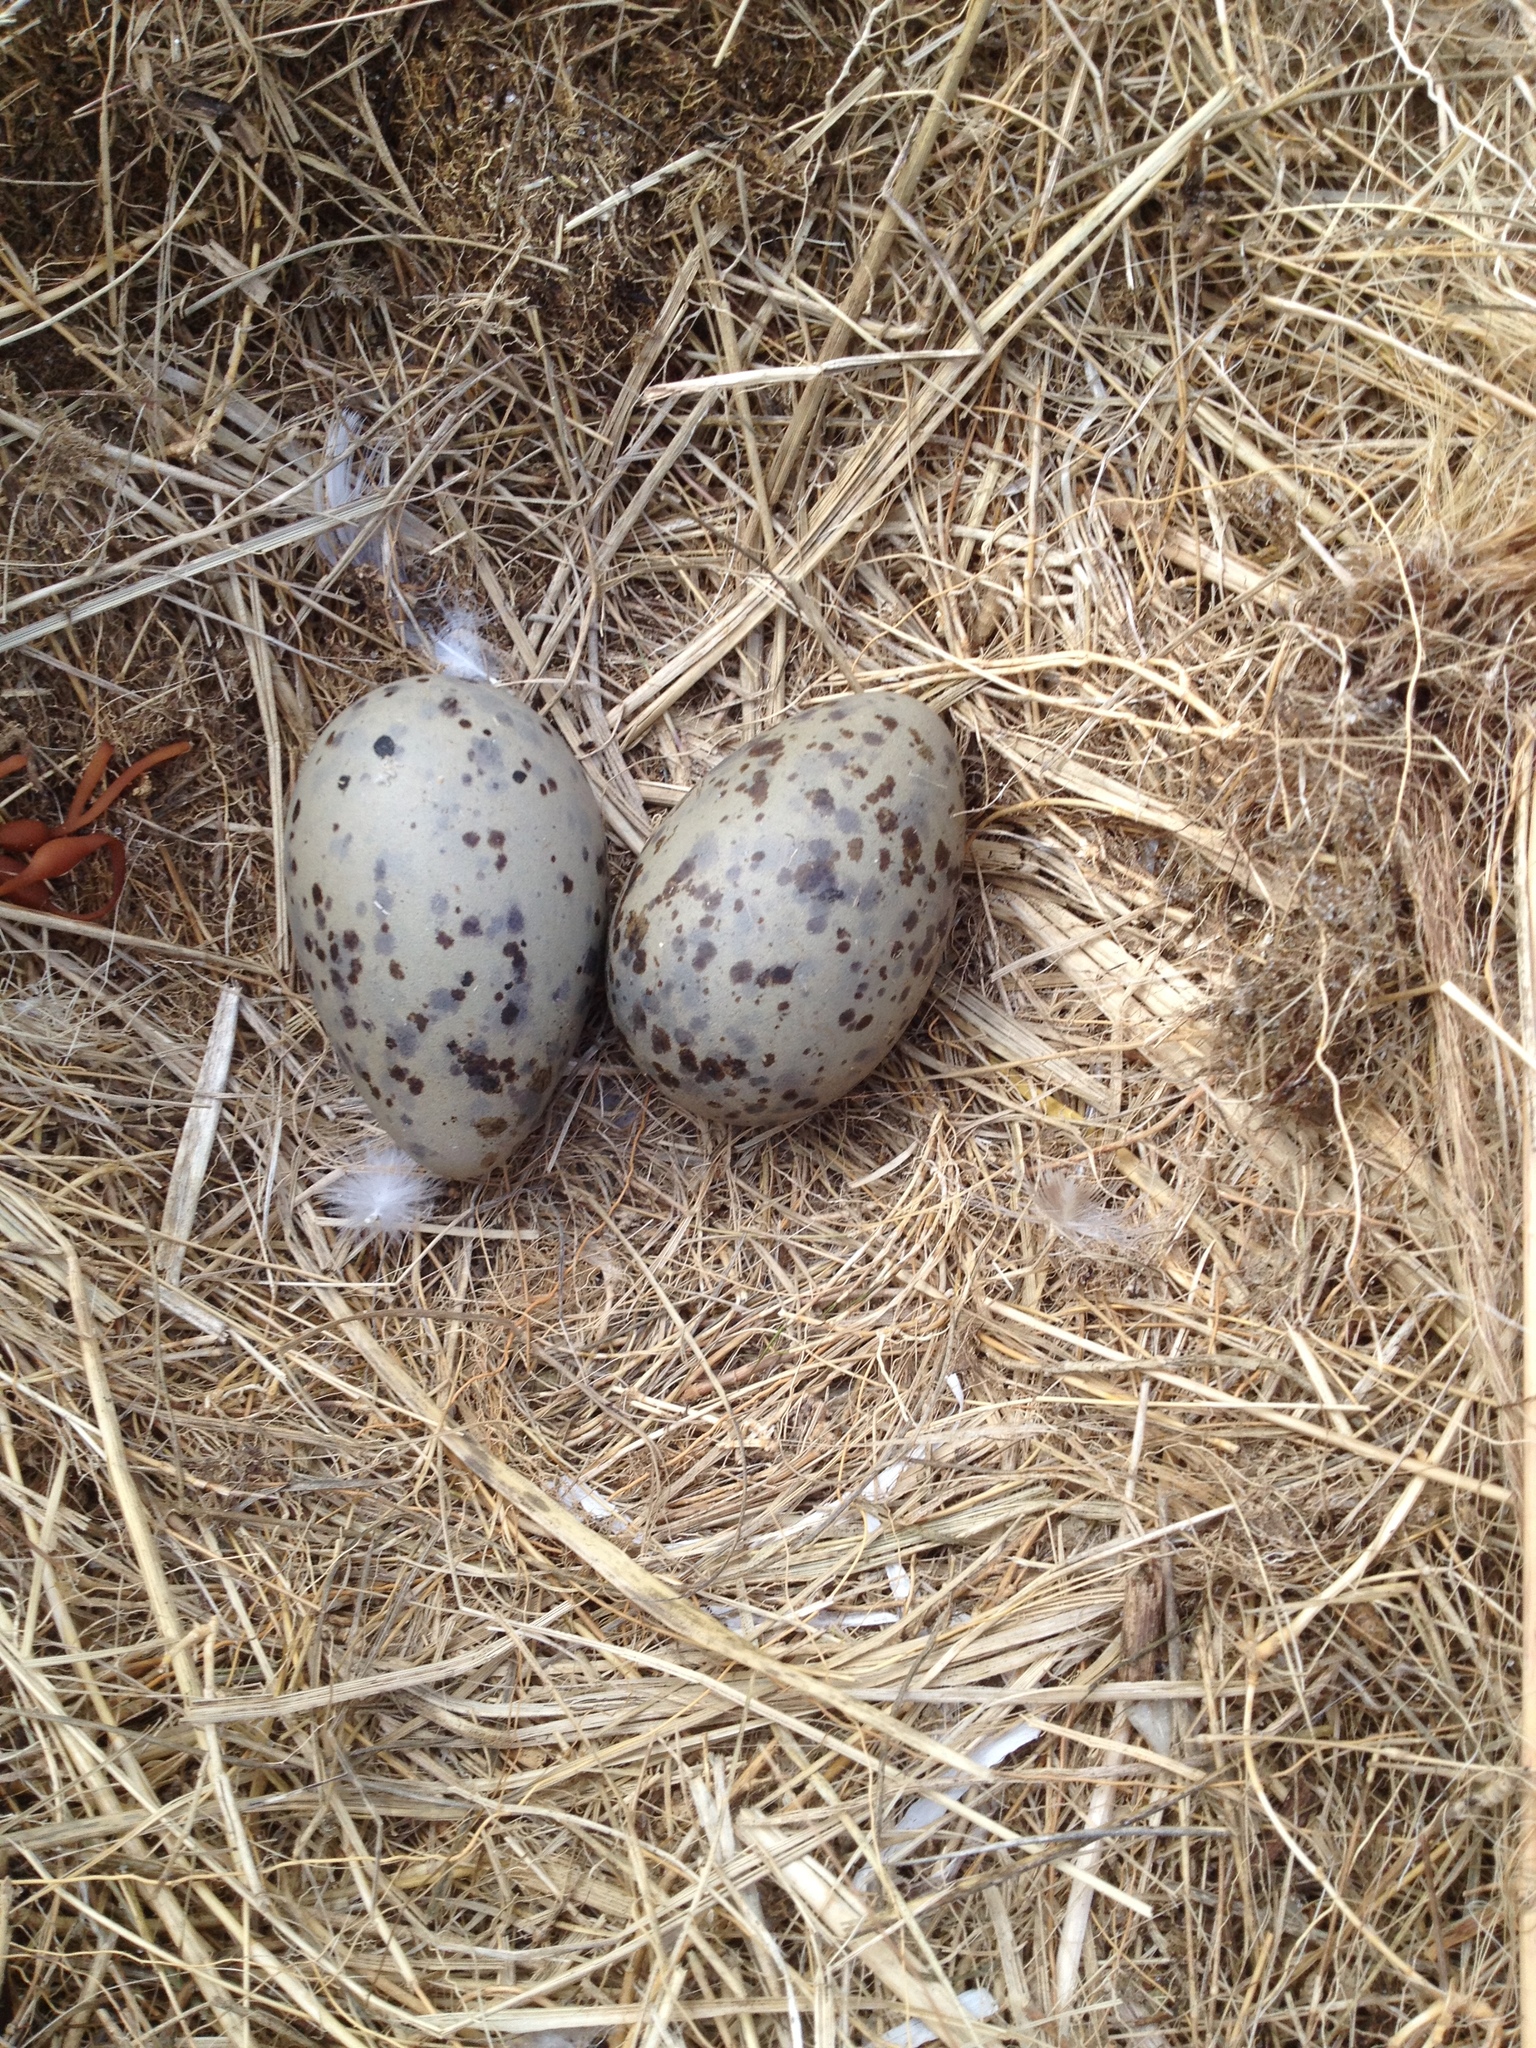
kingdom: Animalia
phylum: Chordata
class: Aves
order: Charadriiformes
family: Laridae
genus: Larus
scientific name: Larus smithsonianus
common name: American herring gull
